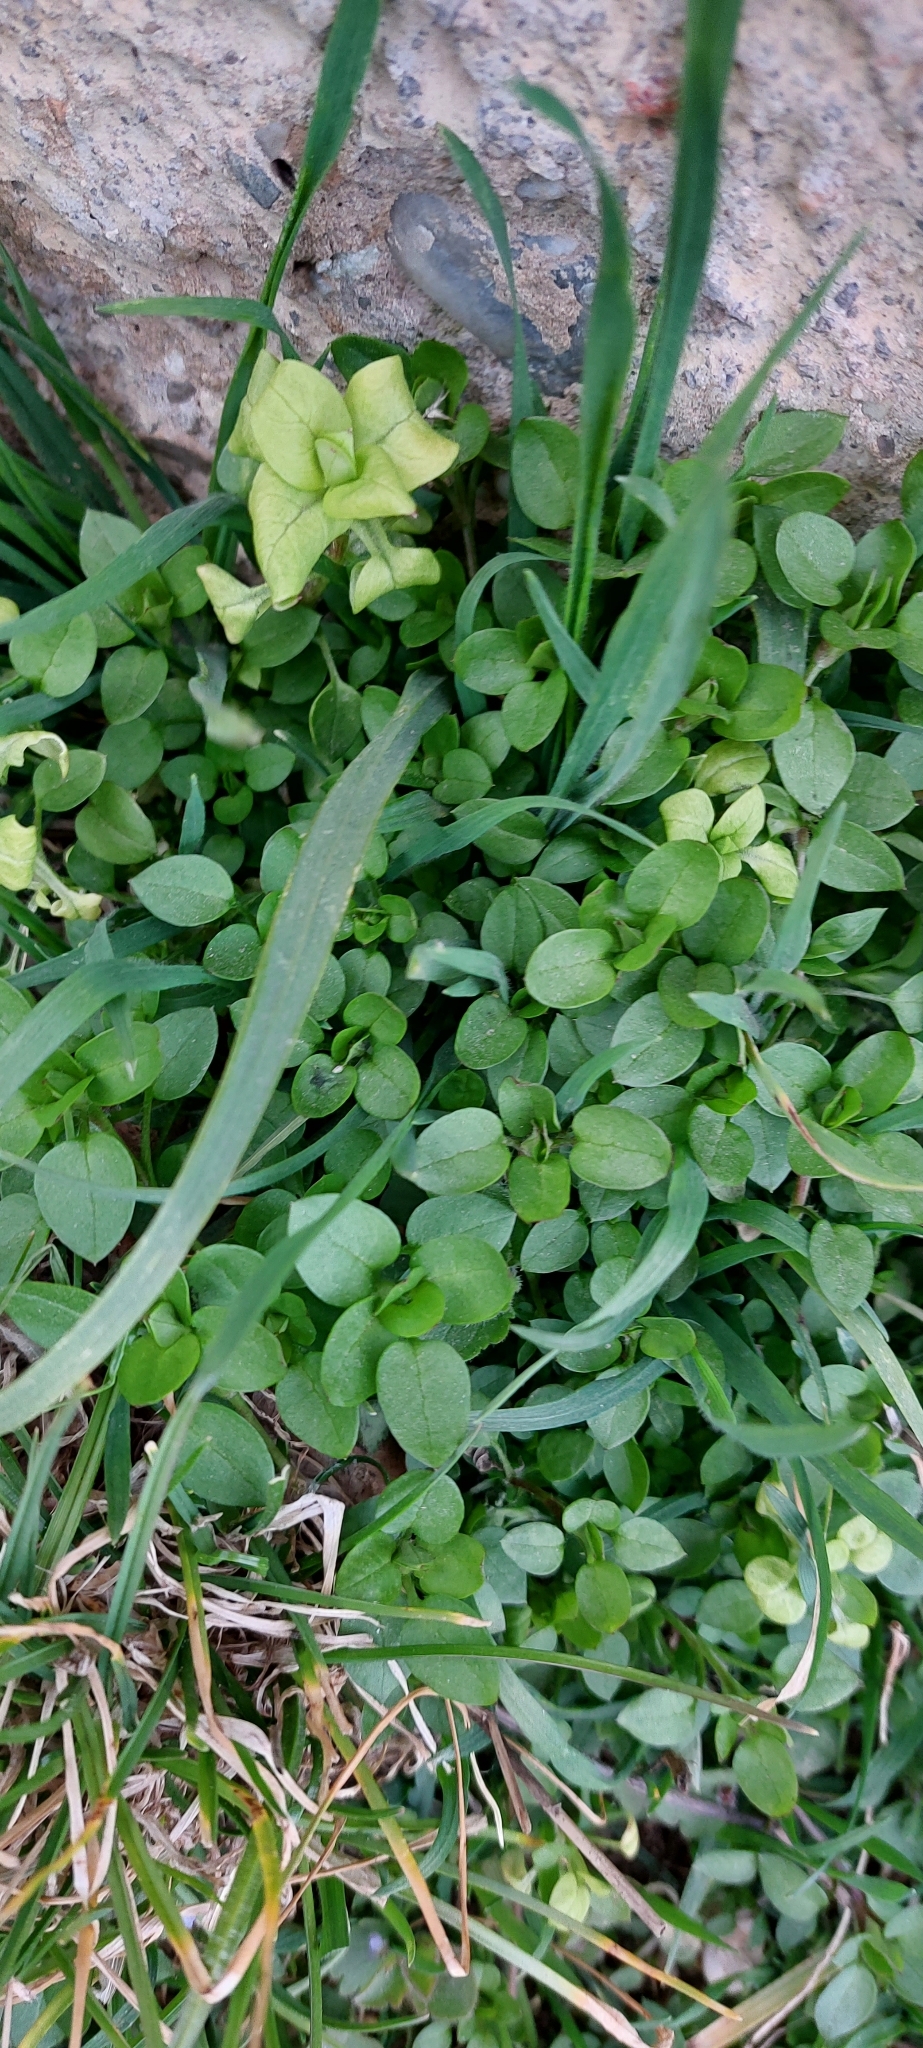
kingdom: Plantae
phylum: Tracheophyta
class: Magnoliopsida
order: Caryophyllales
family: Caryophyllaceae
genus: Stellaria
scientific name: Stellaria
